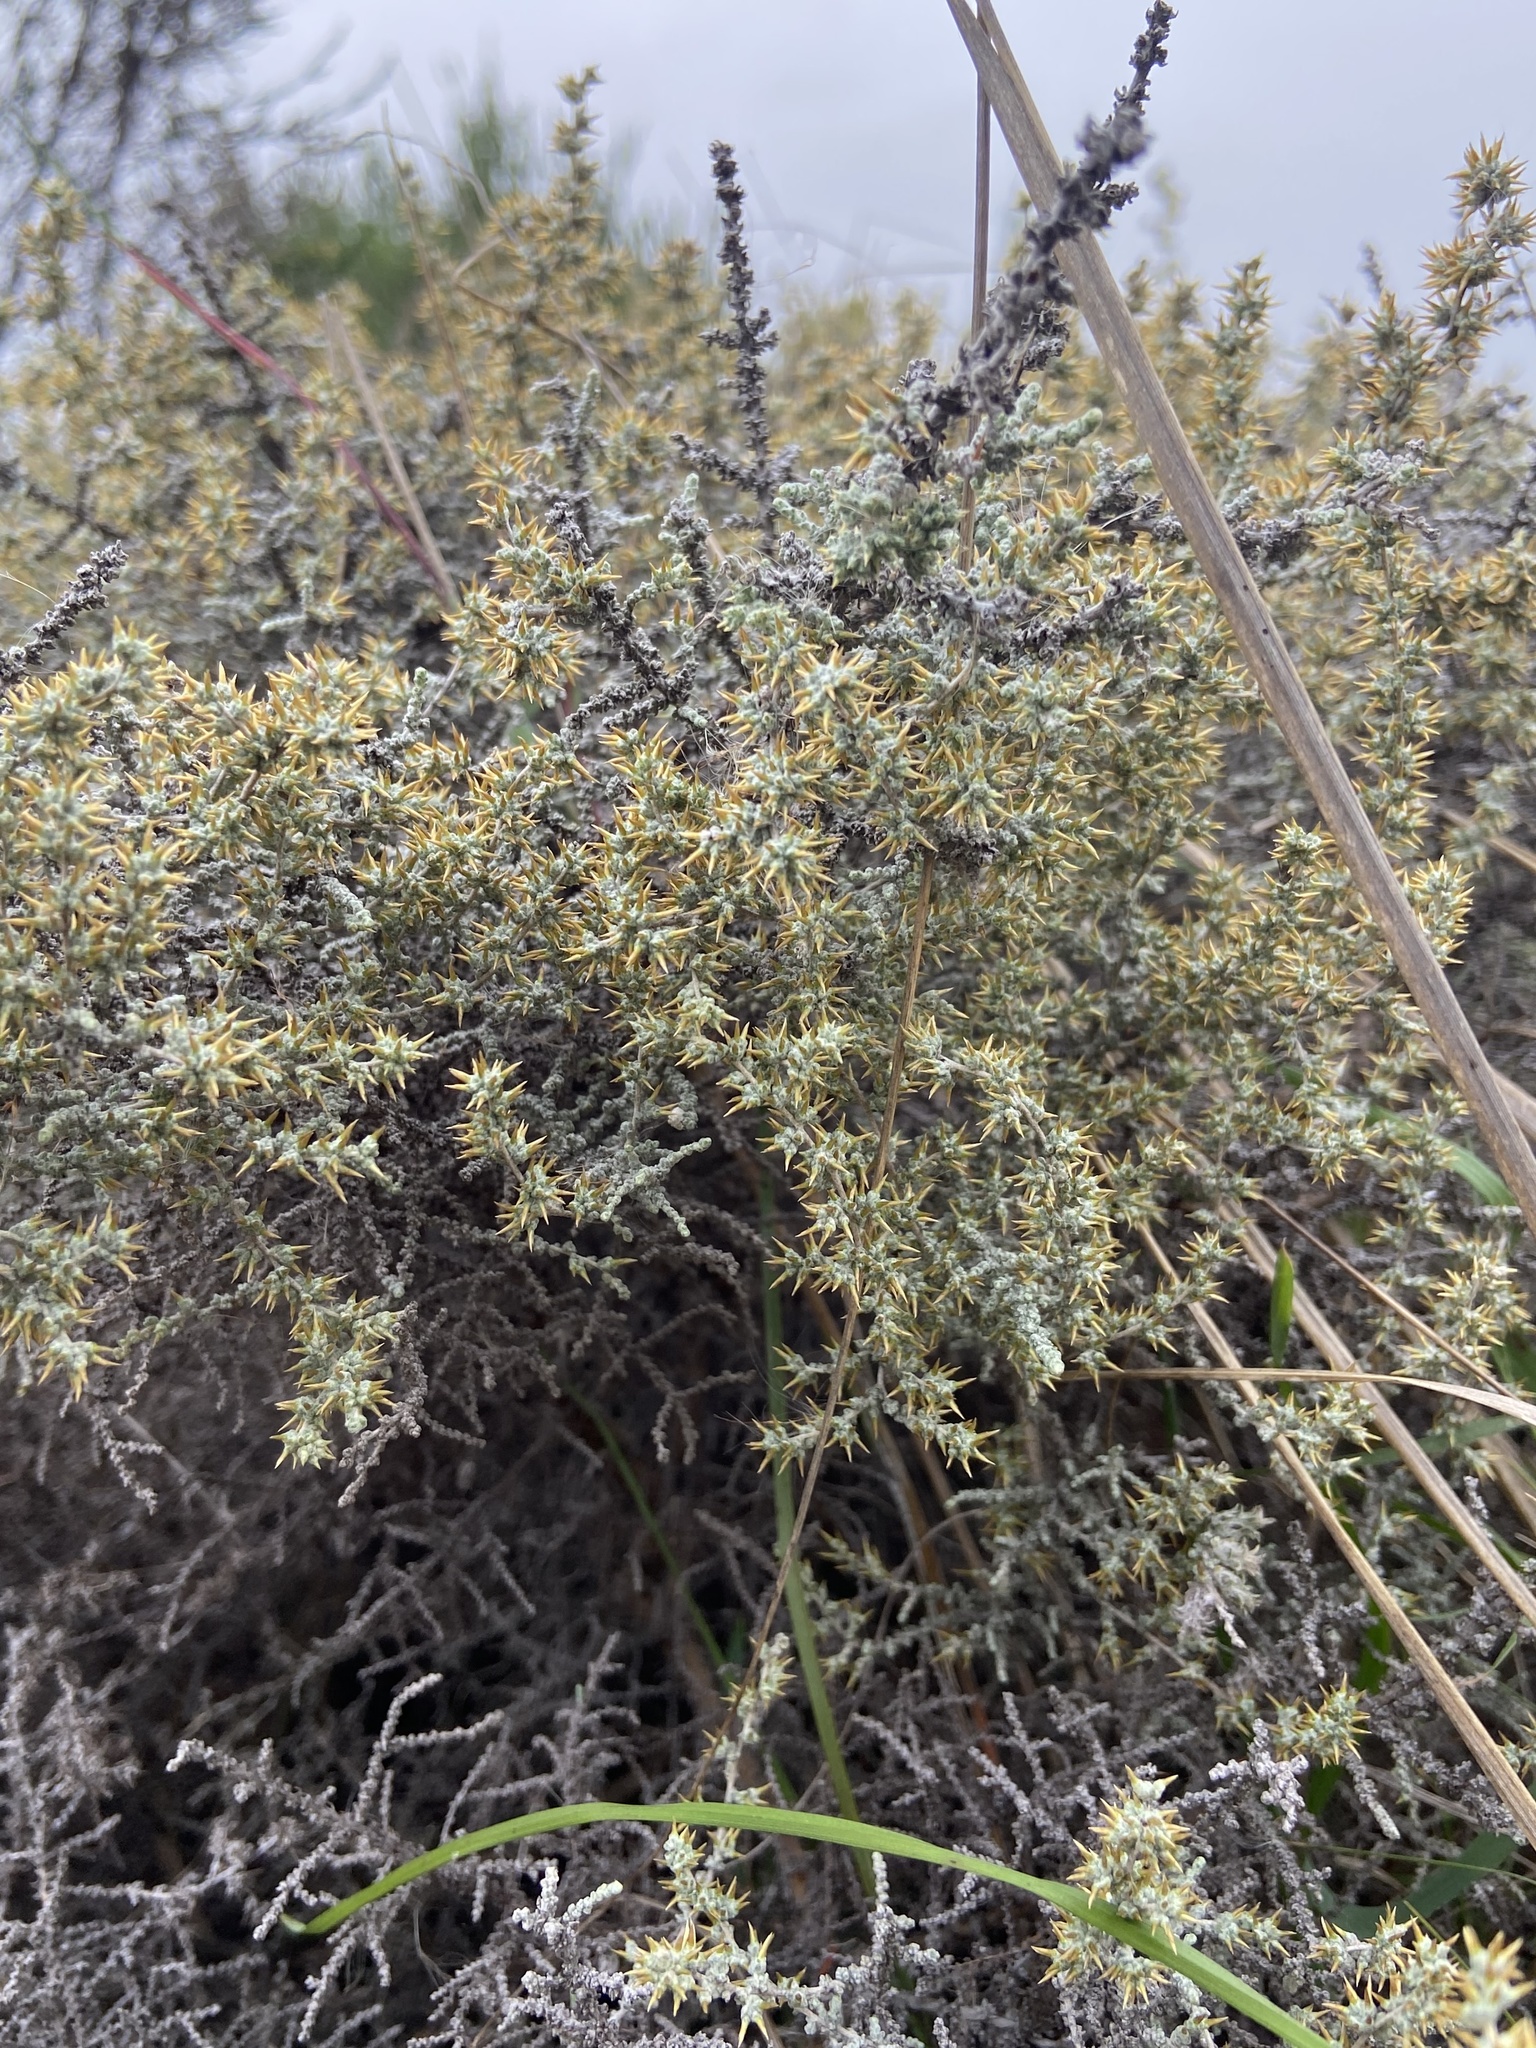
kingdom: Plantae
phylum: Tracheophyta
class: Magnoliopsida
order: Asterales
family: Asteraceae
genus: Seriphium
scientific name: Seriphium plumosum
